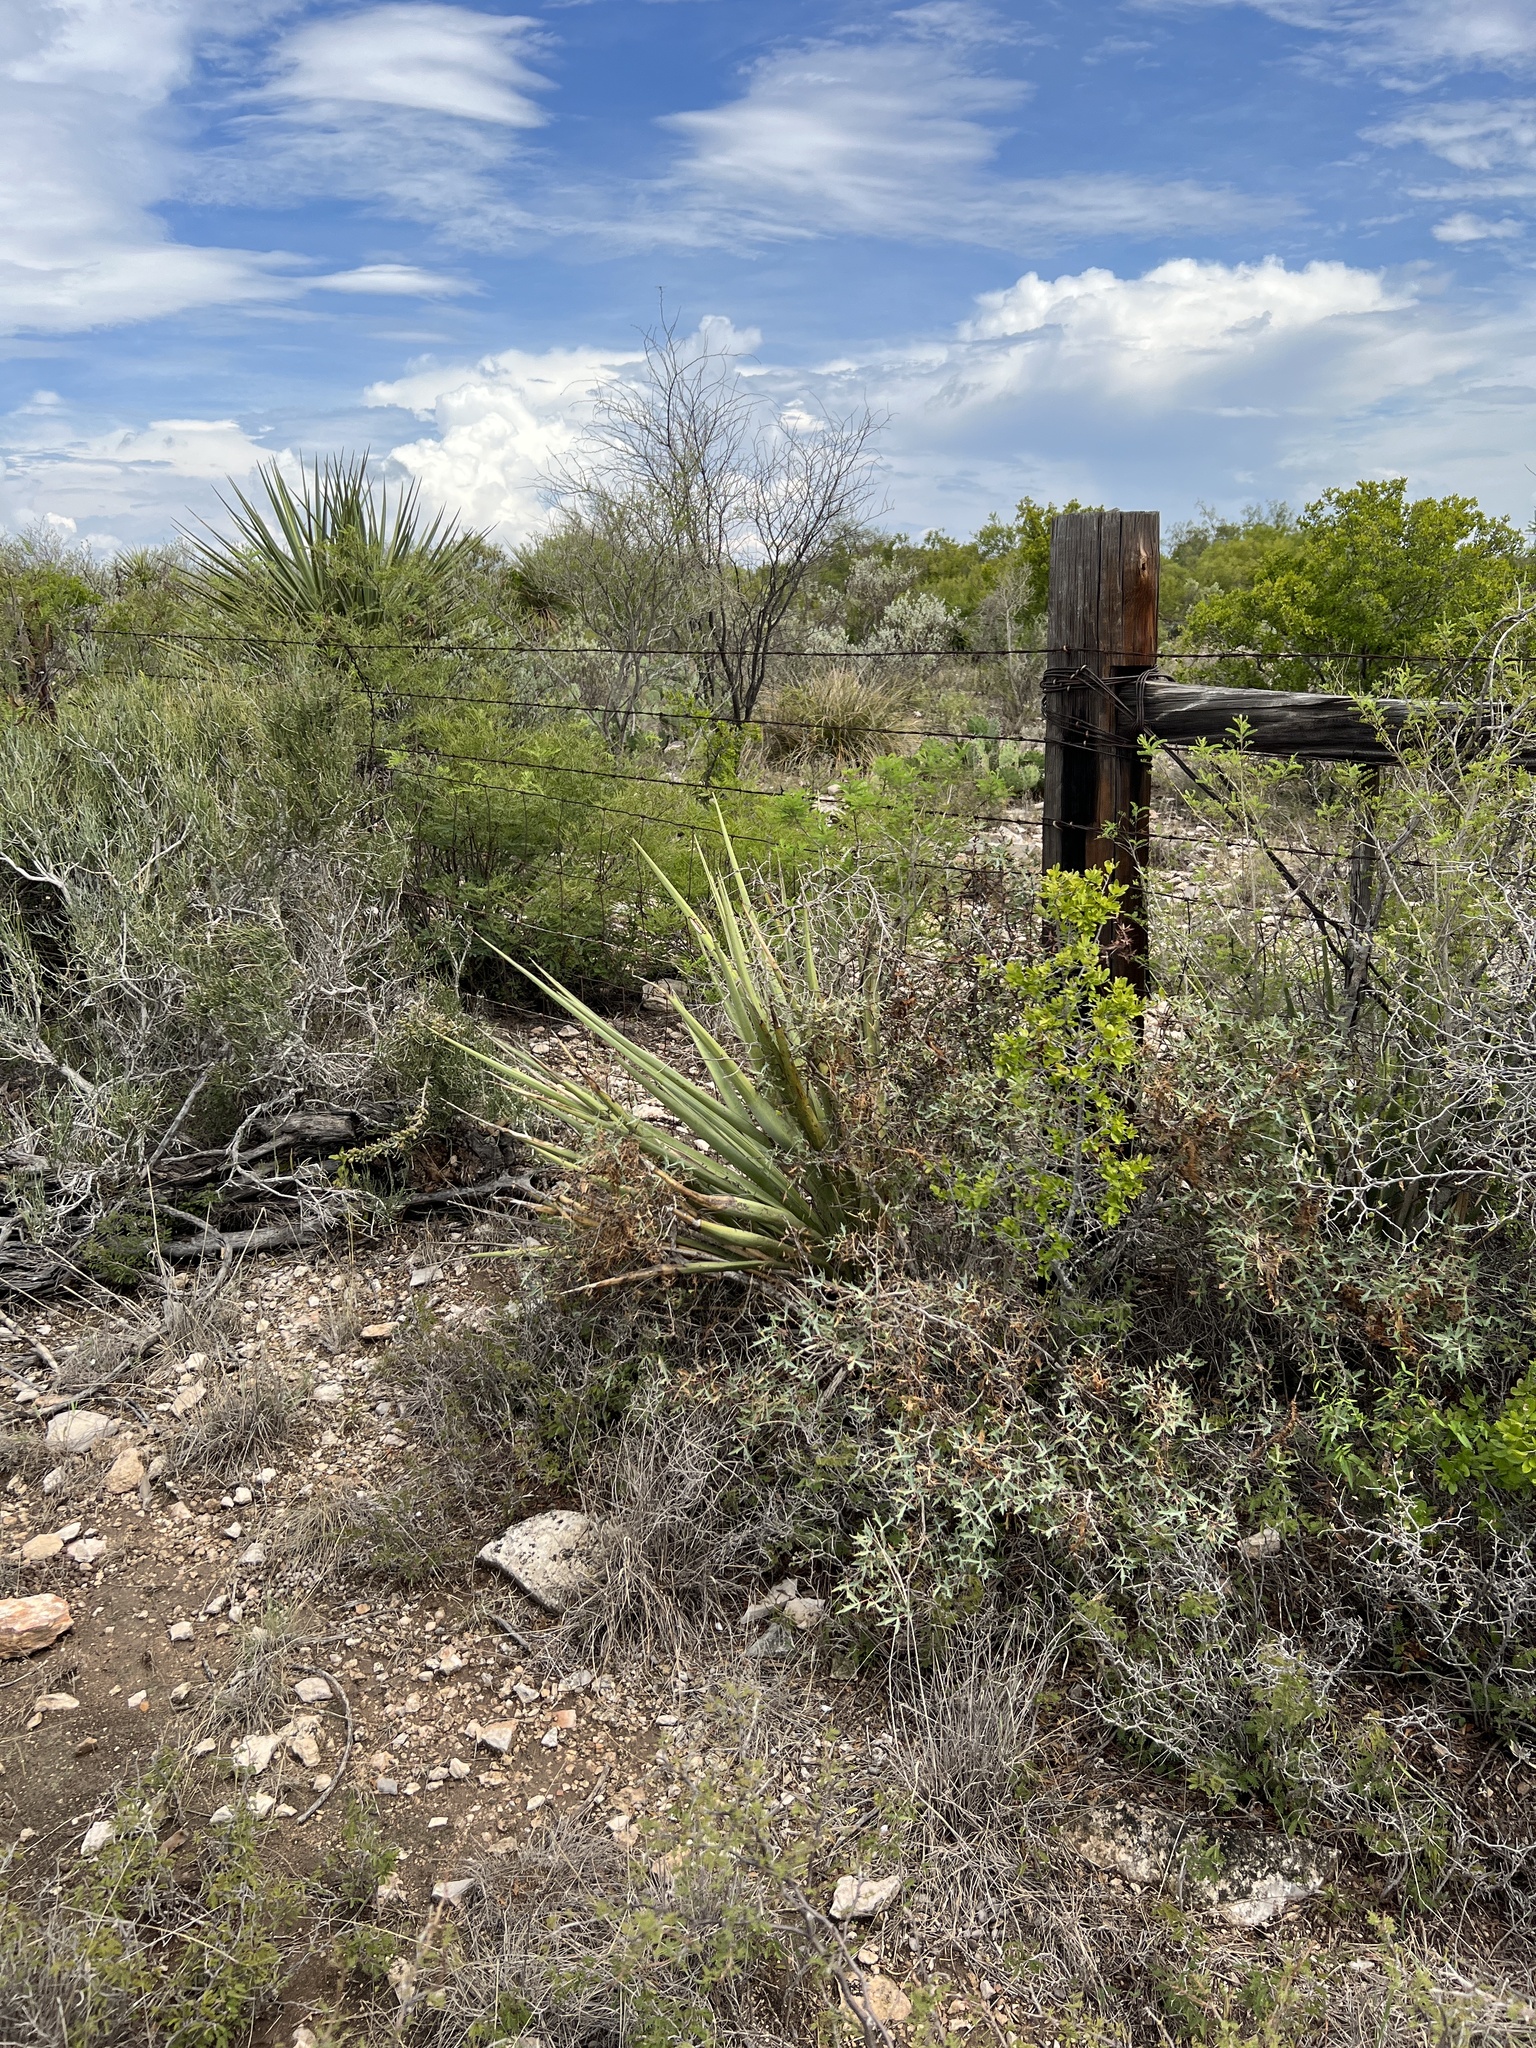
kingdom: Plantae
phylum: Tracheophyta
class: Liliopsida
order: Asparagales
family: Asparagaceae
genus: Yucca
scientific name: Yucca treculiana
